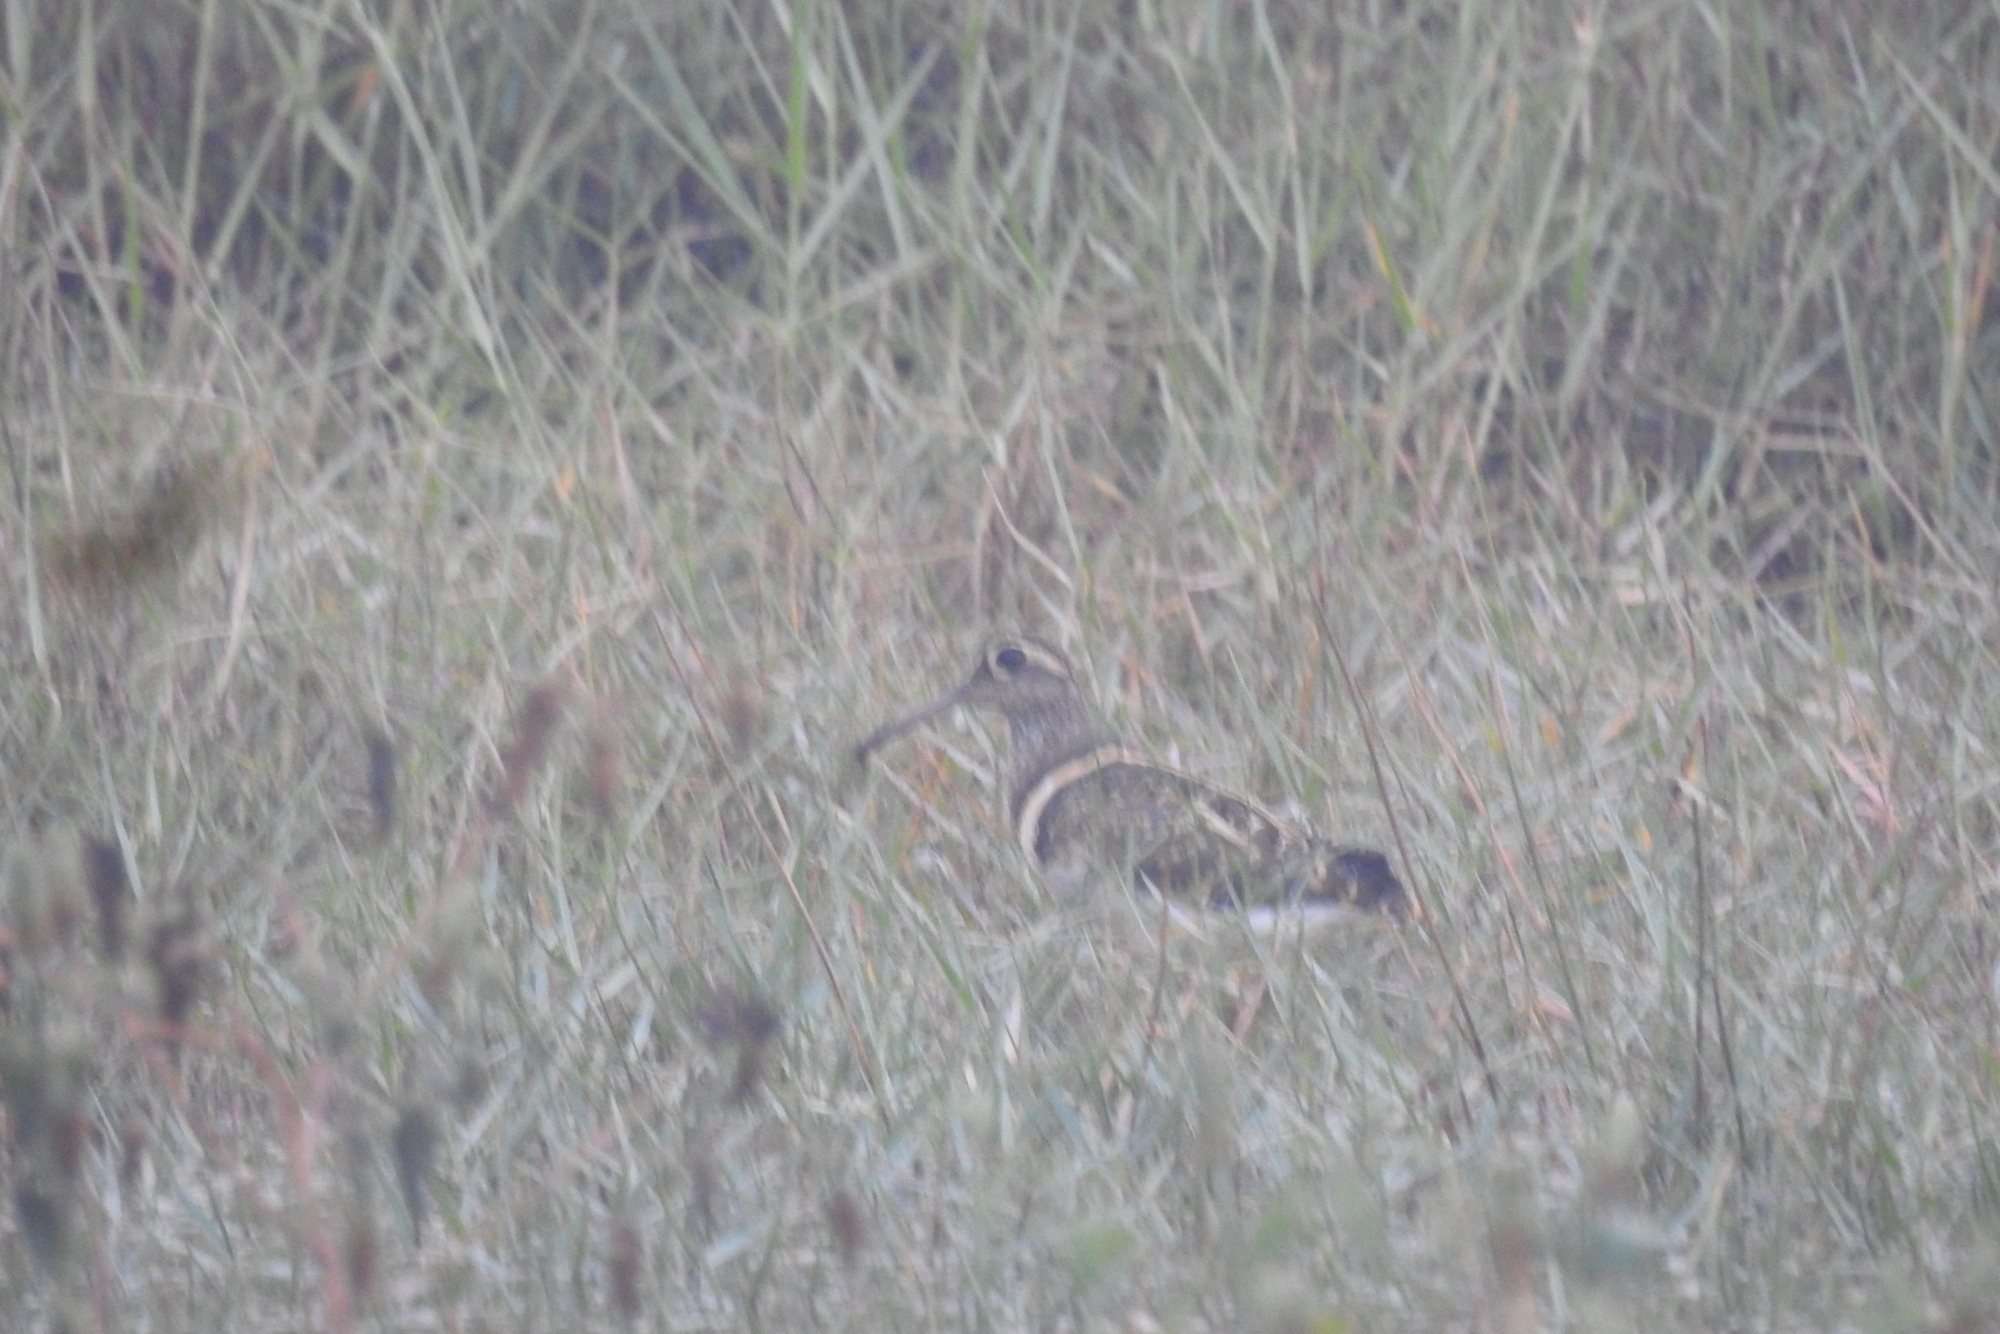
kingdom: Animalia
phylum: Chordata
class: Aves
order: Charadriiformes
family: Rostratulidae
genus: Rostratula
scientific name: Rostratula benghalensis
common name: Greater painted-snipe
